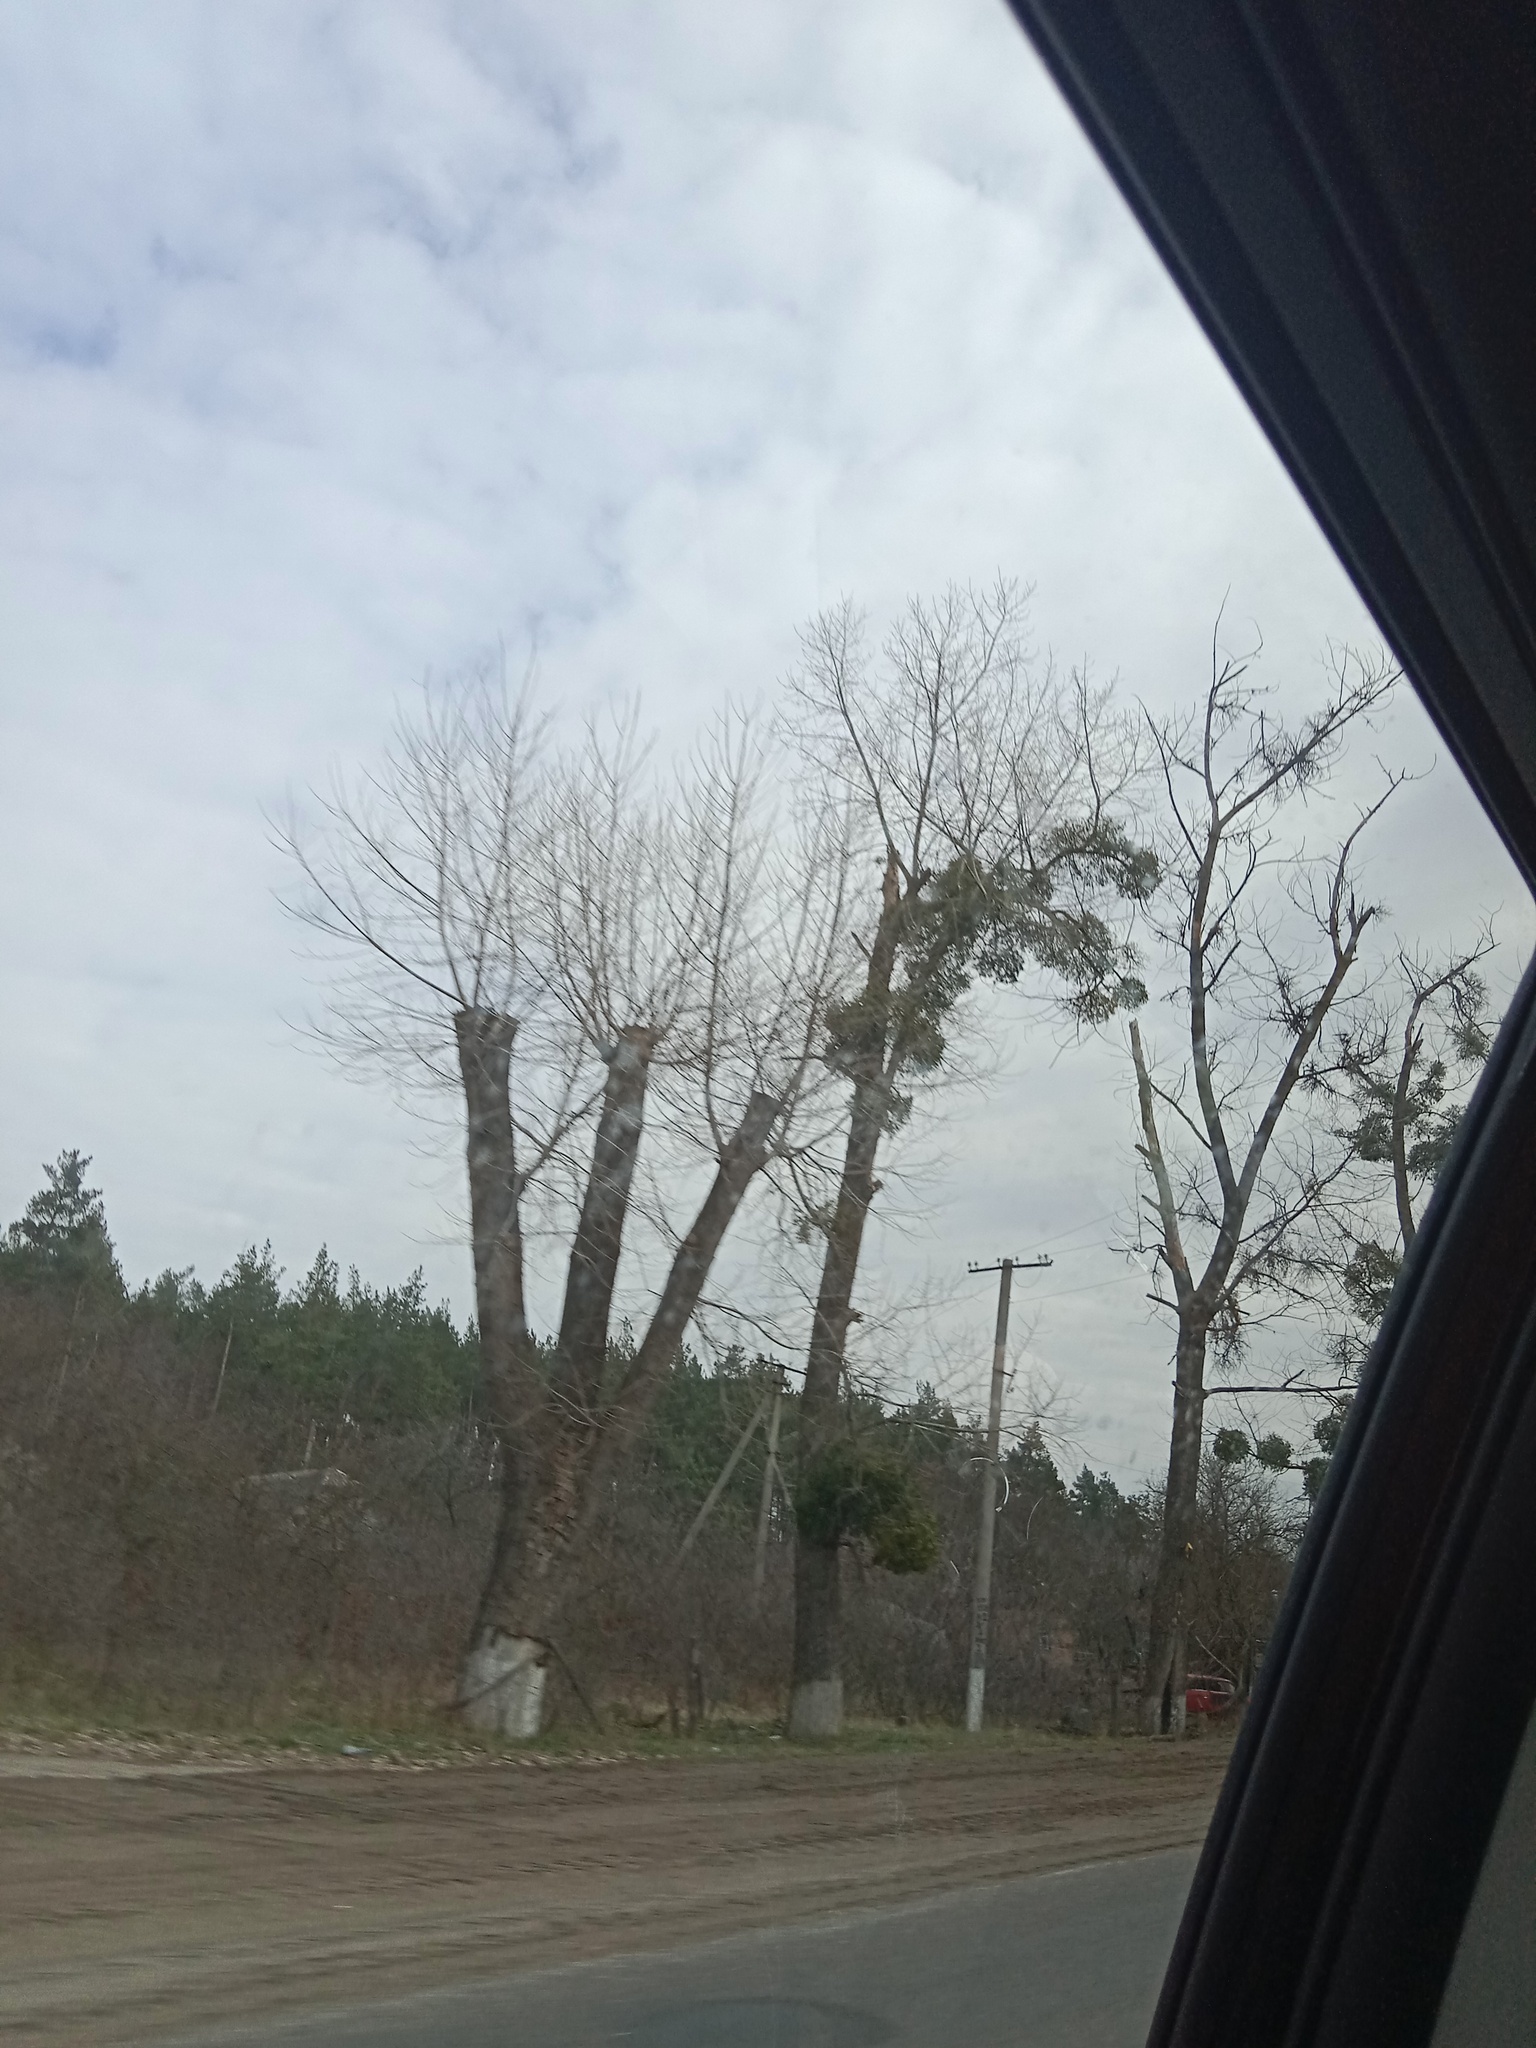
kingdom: Plantae
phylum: Tracheophyta
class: Magnoliopsida
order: Santalales
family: Viscaceae
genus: Viscum
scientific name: Viscum album
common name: Mistletoe
